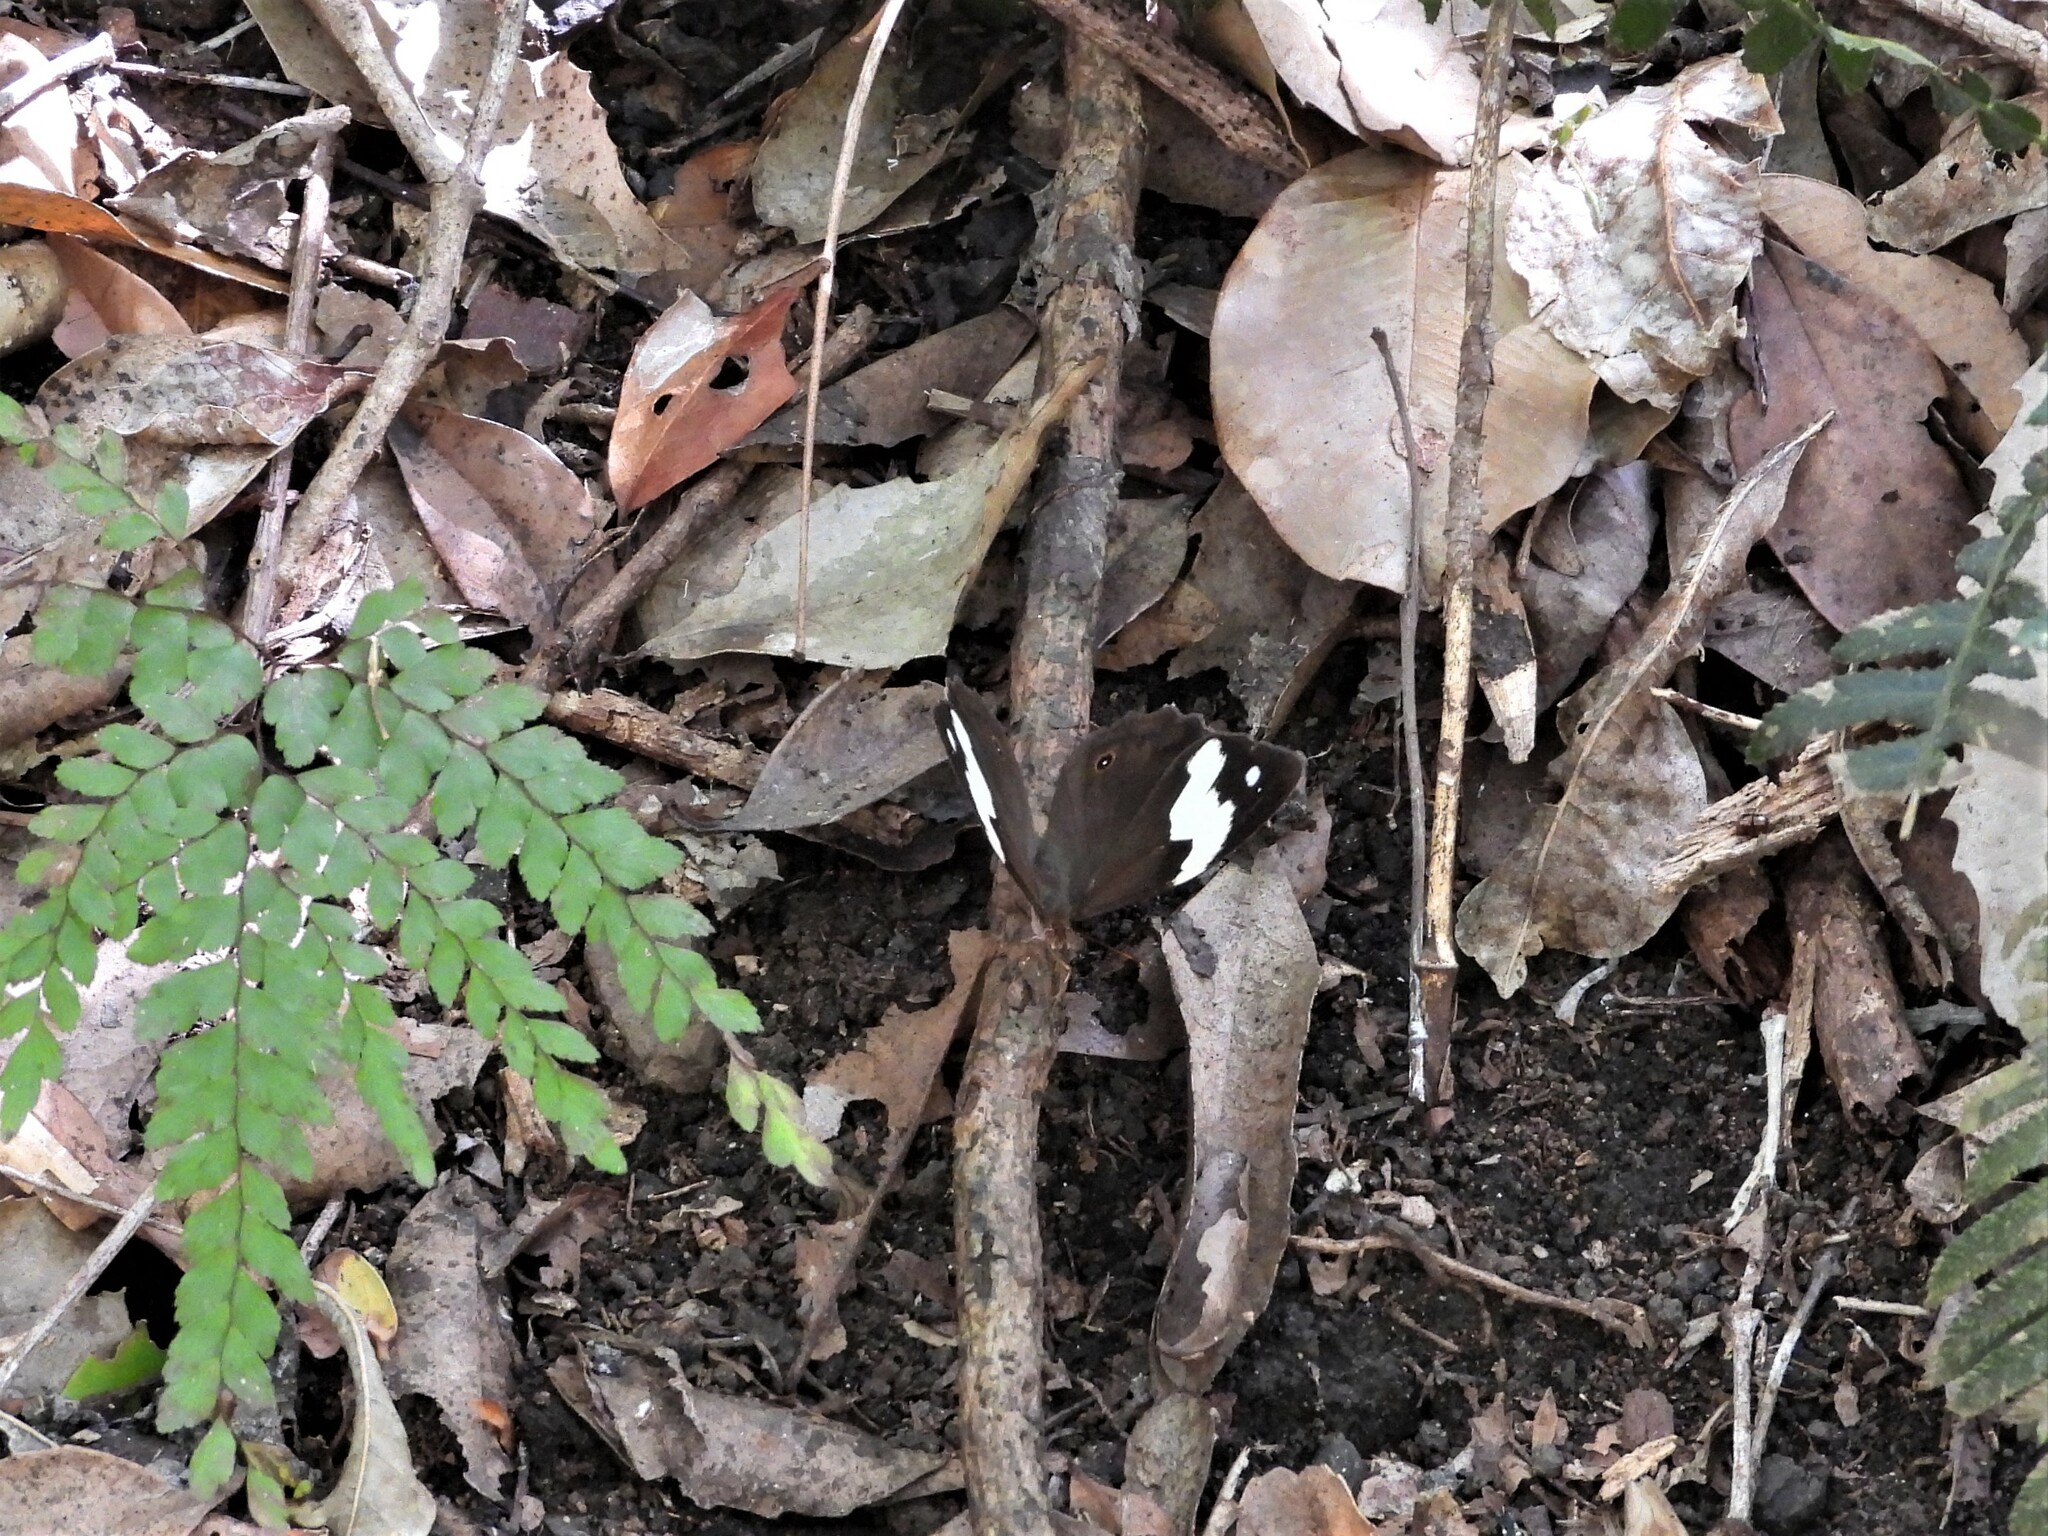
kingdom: Animalia
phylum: Arthropoda
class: Insecta
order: Lepidoptera
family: Nymphalidae
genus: Heteronympha
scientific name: Heteronympha mirifica
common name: Wonder brown
